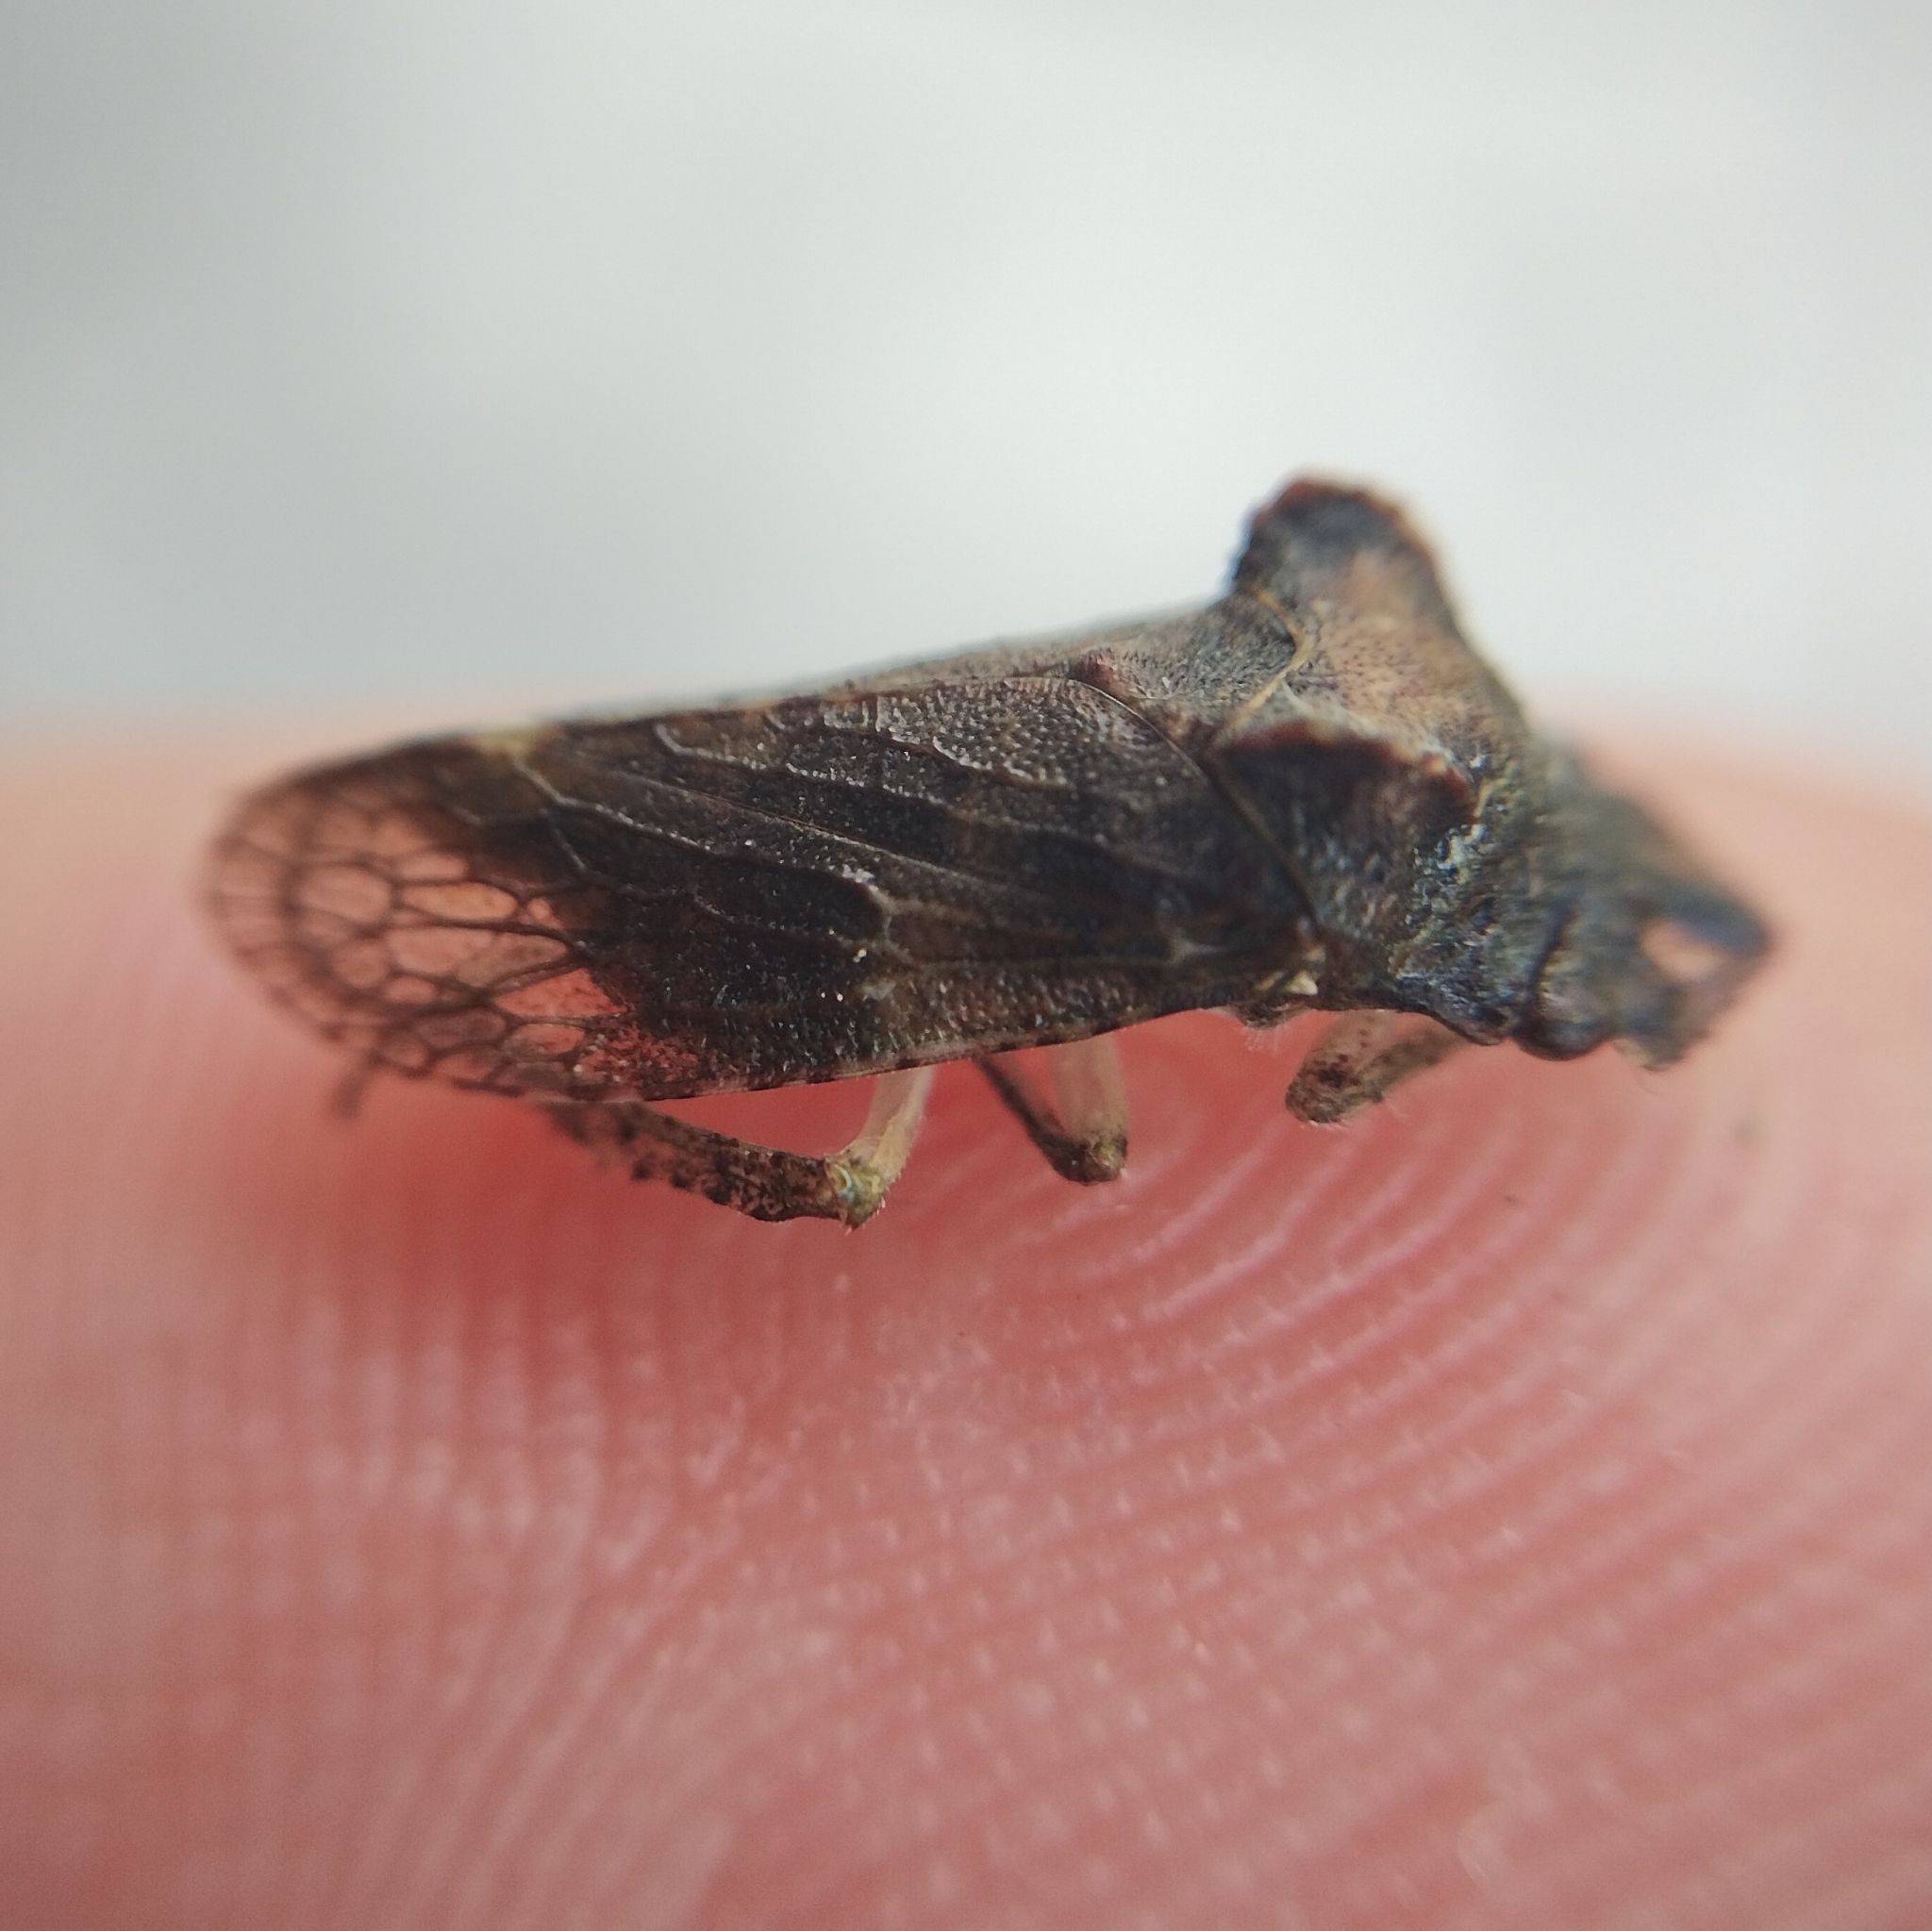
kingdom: Animalia
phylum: Arthropoda
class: Insecta
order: Hemiptera
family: Cicadellidae
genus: Ledra
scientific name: Ledra aurita
